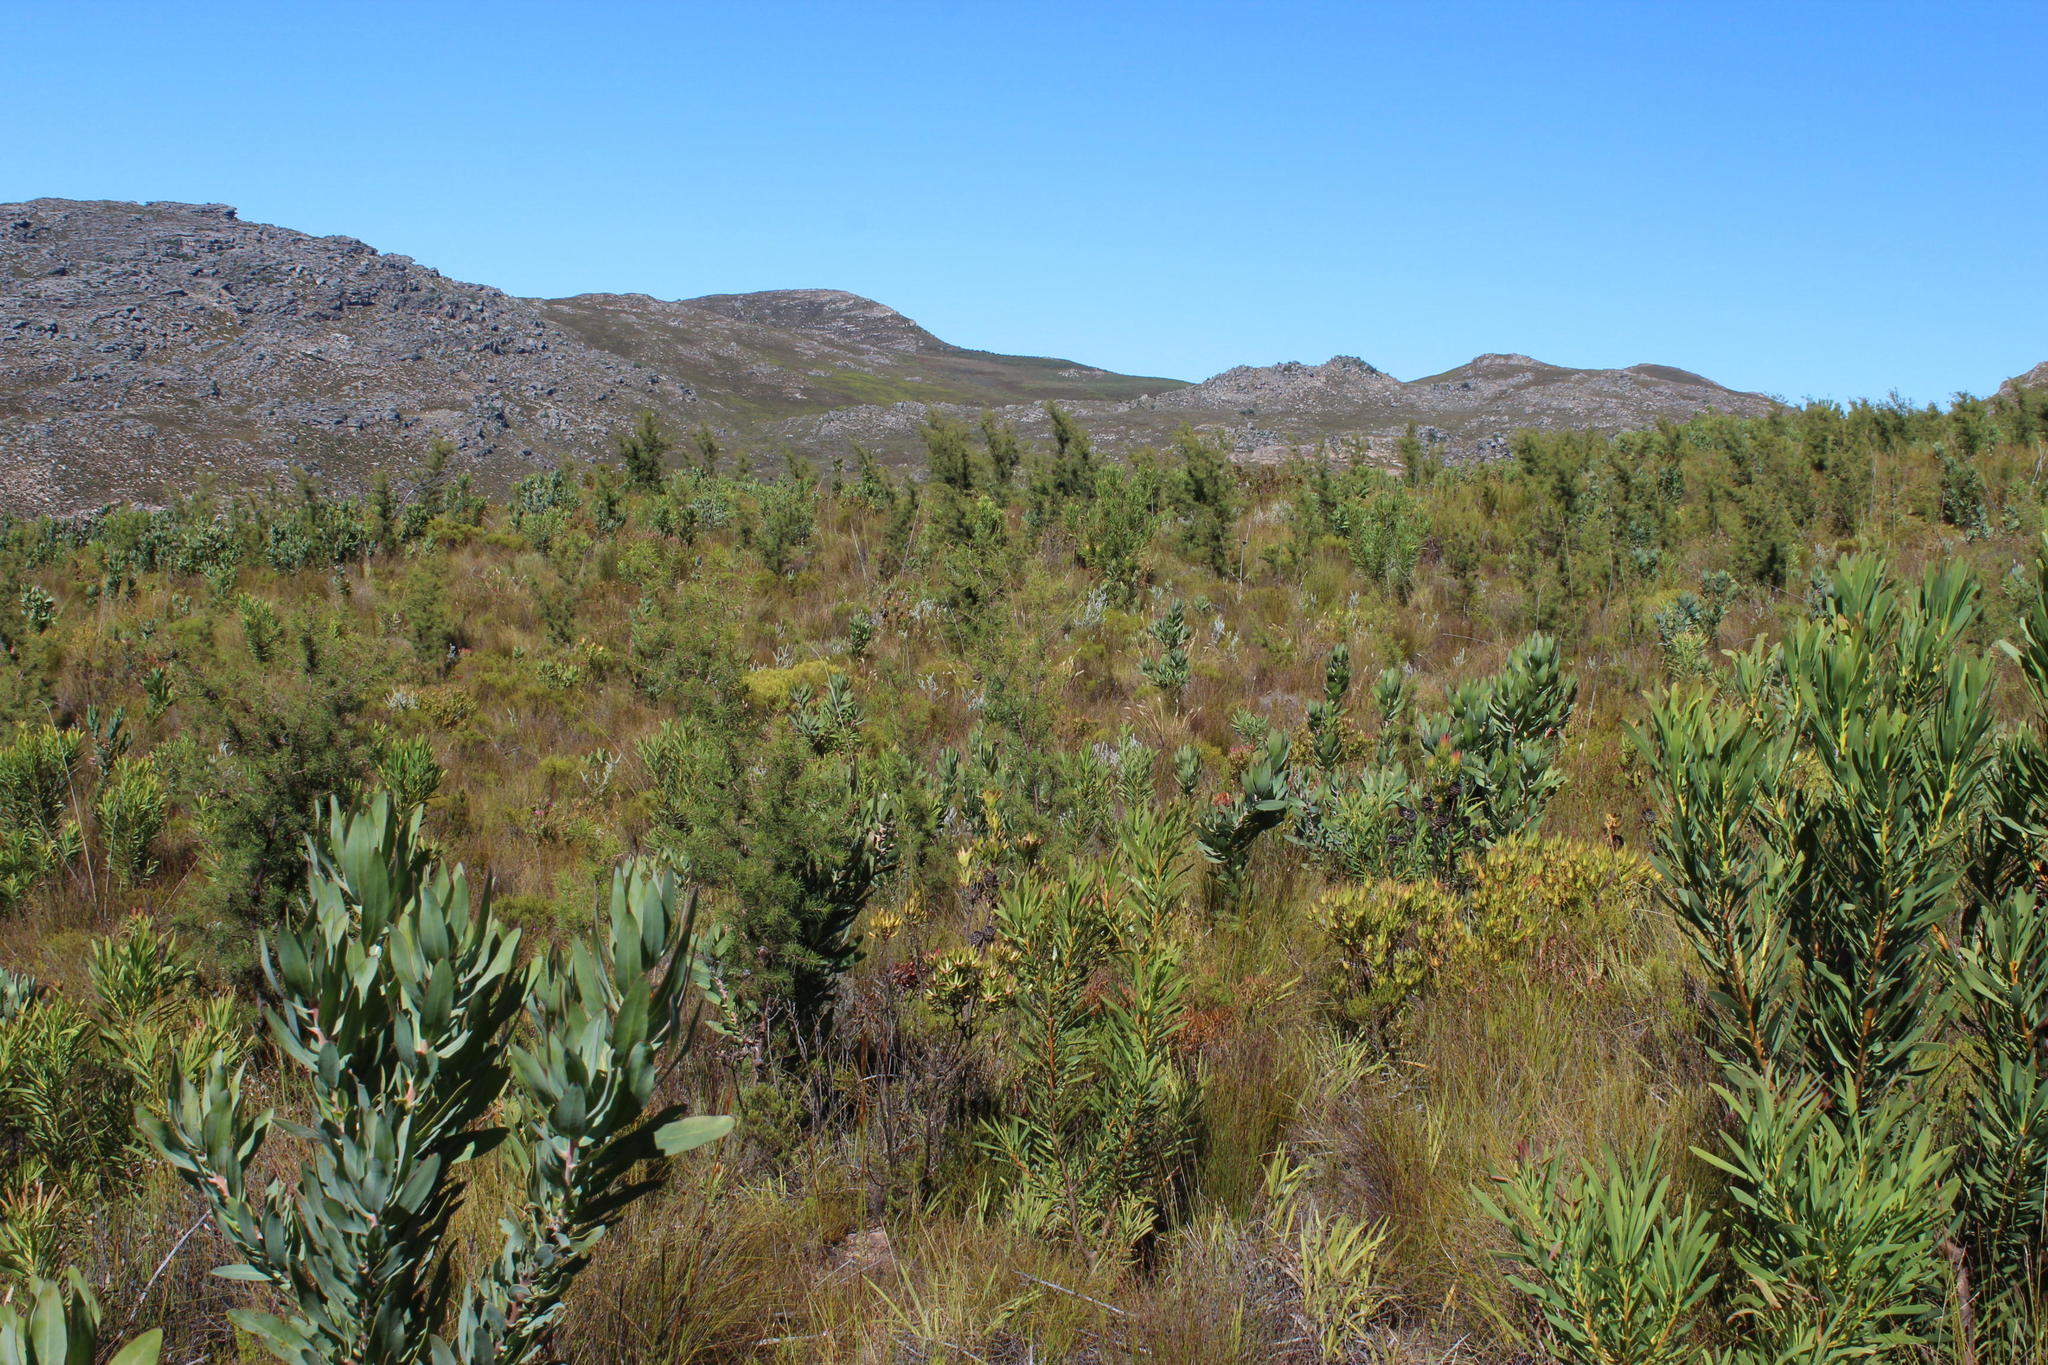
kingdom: Plantae
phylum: Tracheophyta
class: Magnoliopsida
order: Proteales
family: Proteaceae
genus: Hakea
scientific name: Hakea sericea
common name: Needle bush
